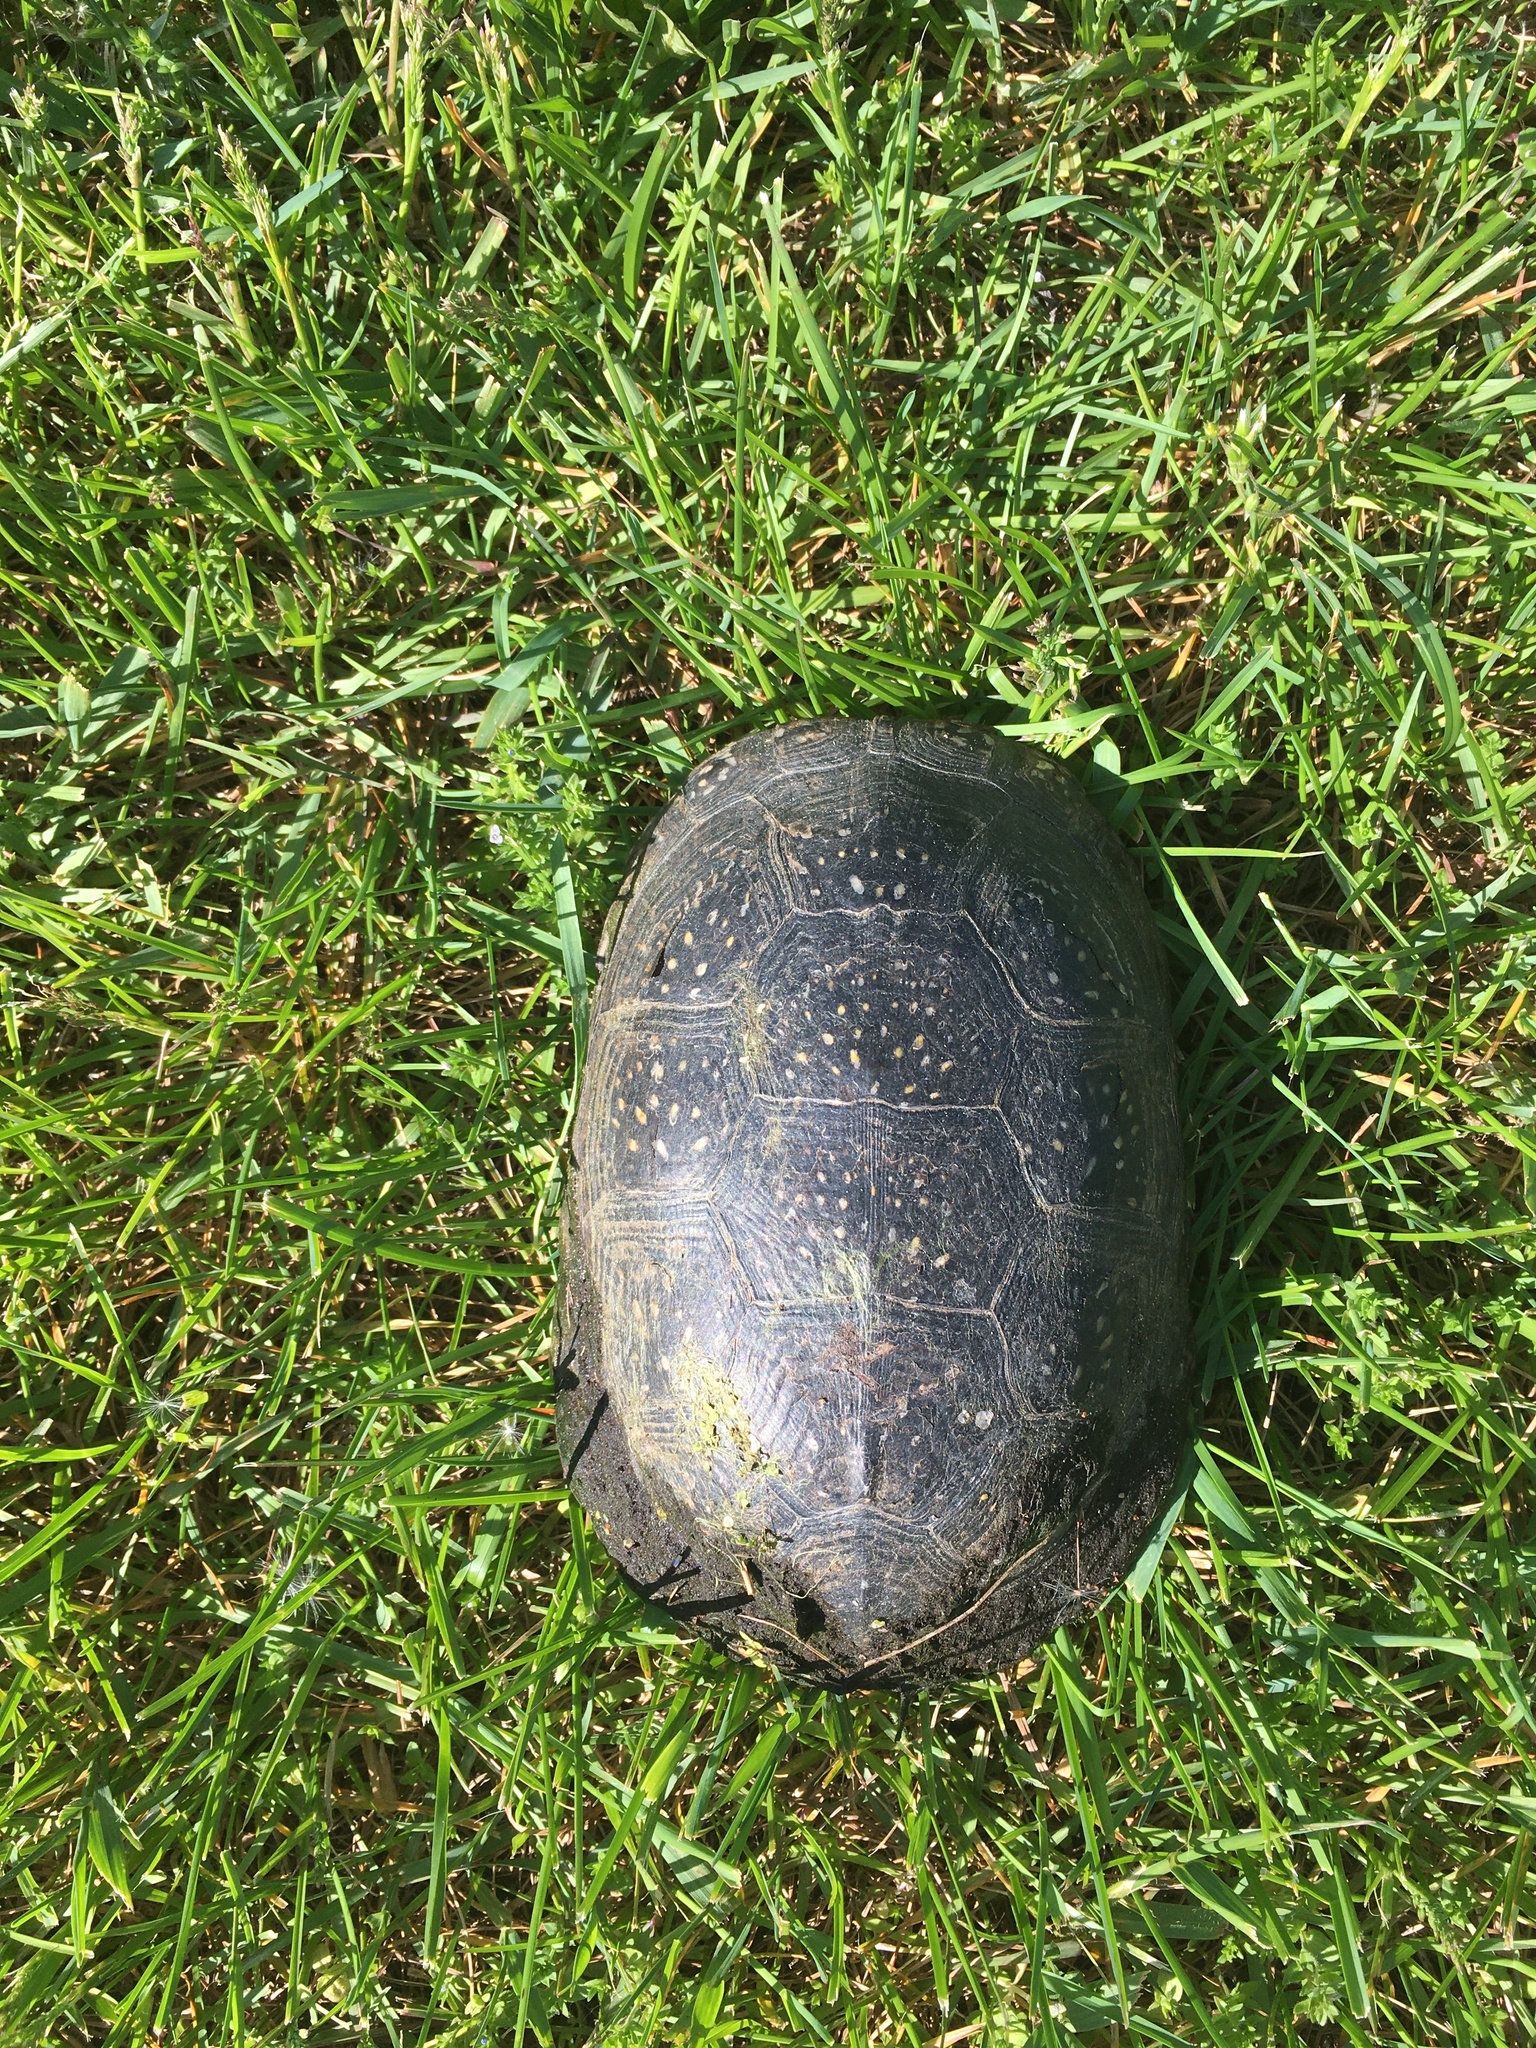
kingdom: Animalia
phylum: Chordata
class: Testudines
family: Emydidae
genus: Emys
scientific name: Emys blandingii
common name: Blanding's turtle
